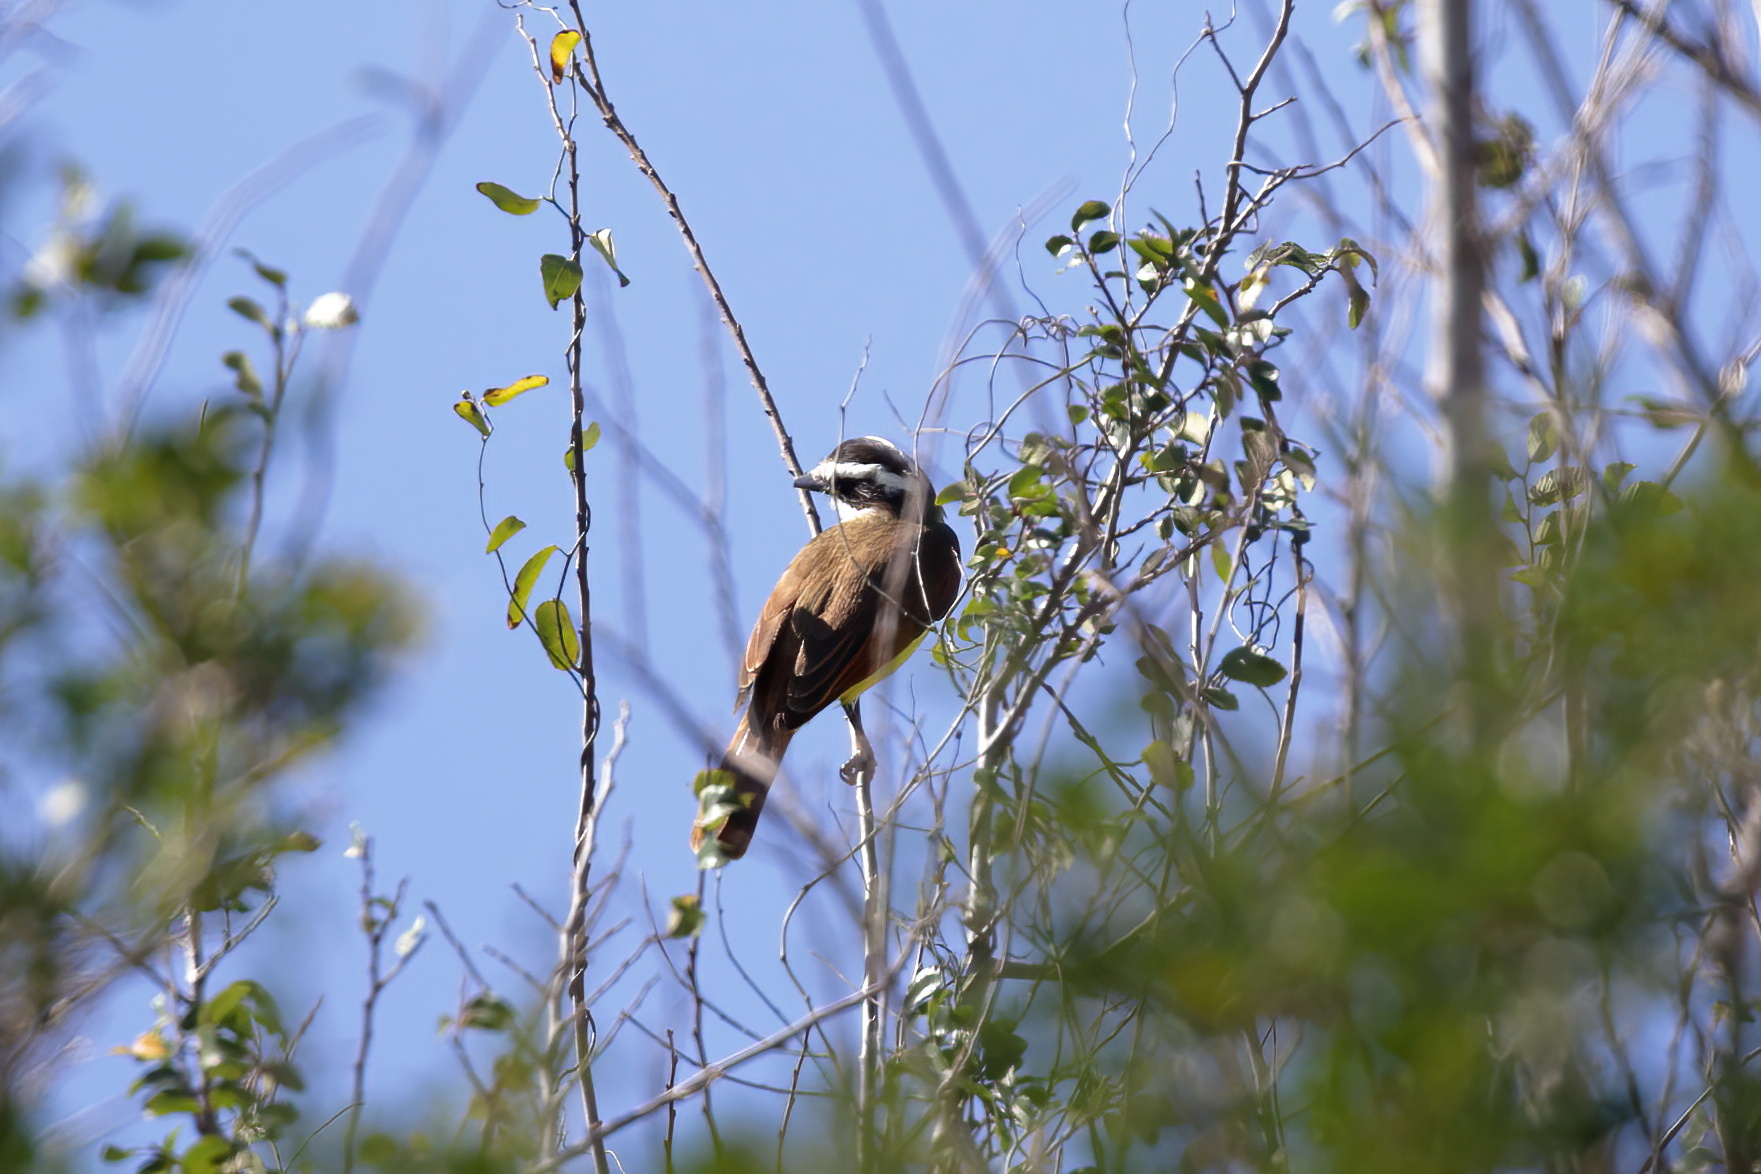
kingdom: Animalia
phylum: Chordata
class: Aves
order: Passeriformes
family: Tyrannidae
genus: Pitangus
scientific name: Pitangus sulphuratus
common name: Great kiskadee
